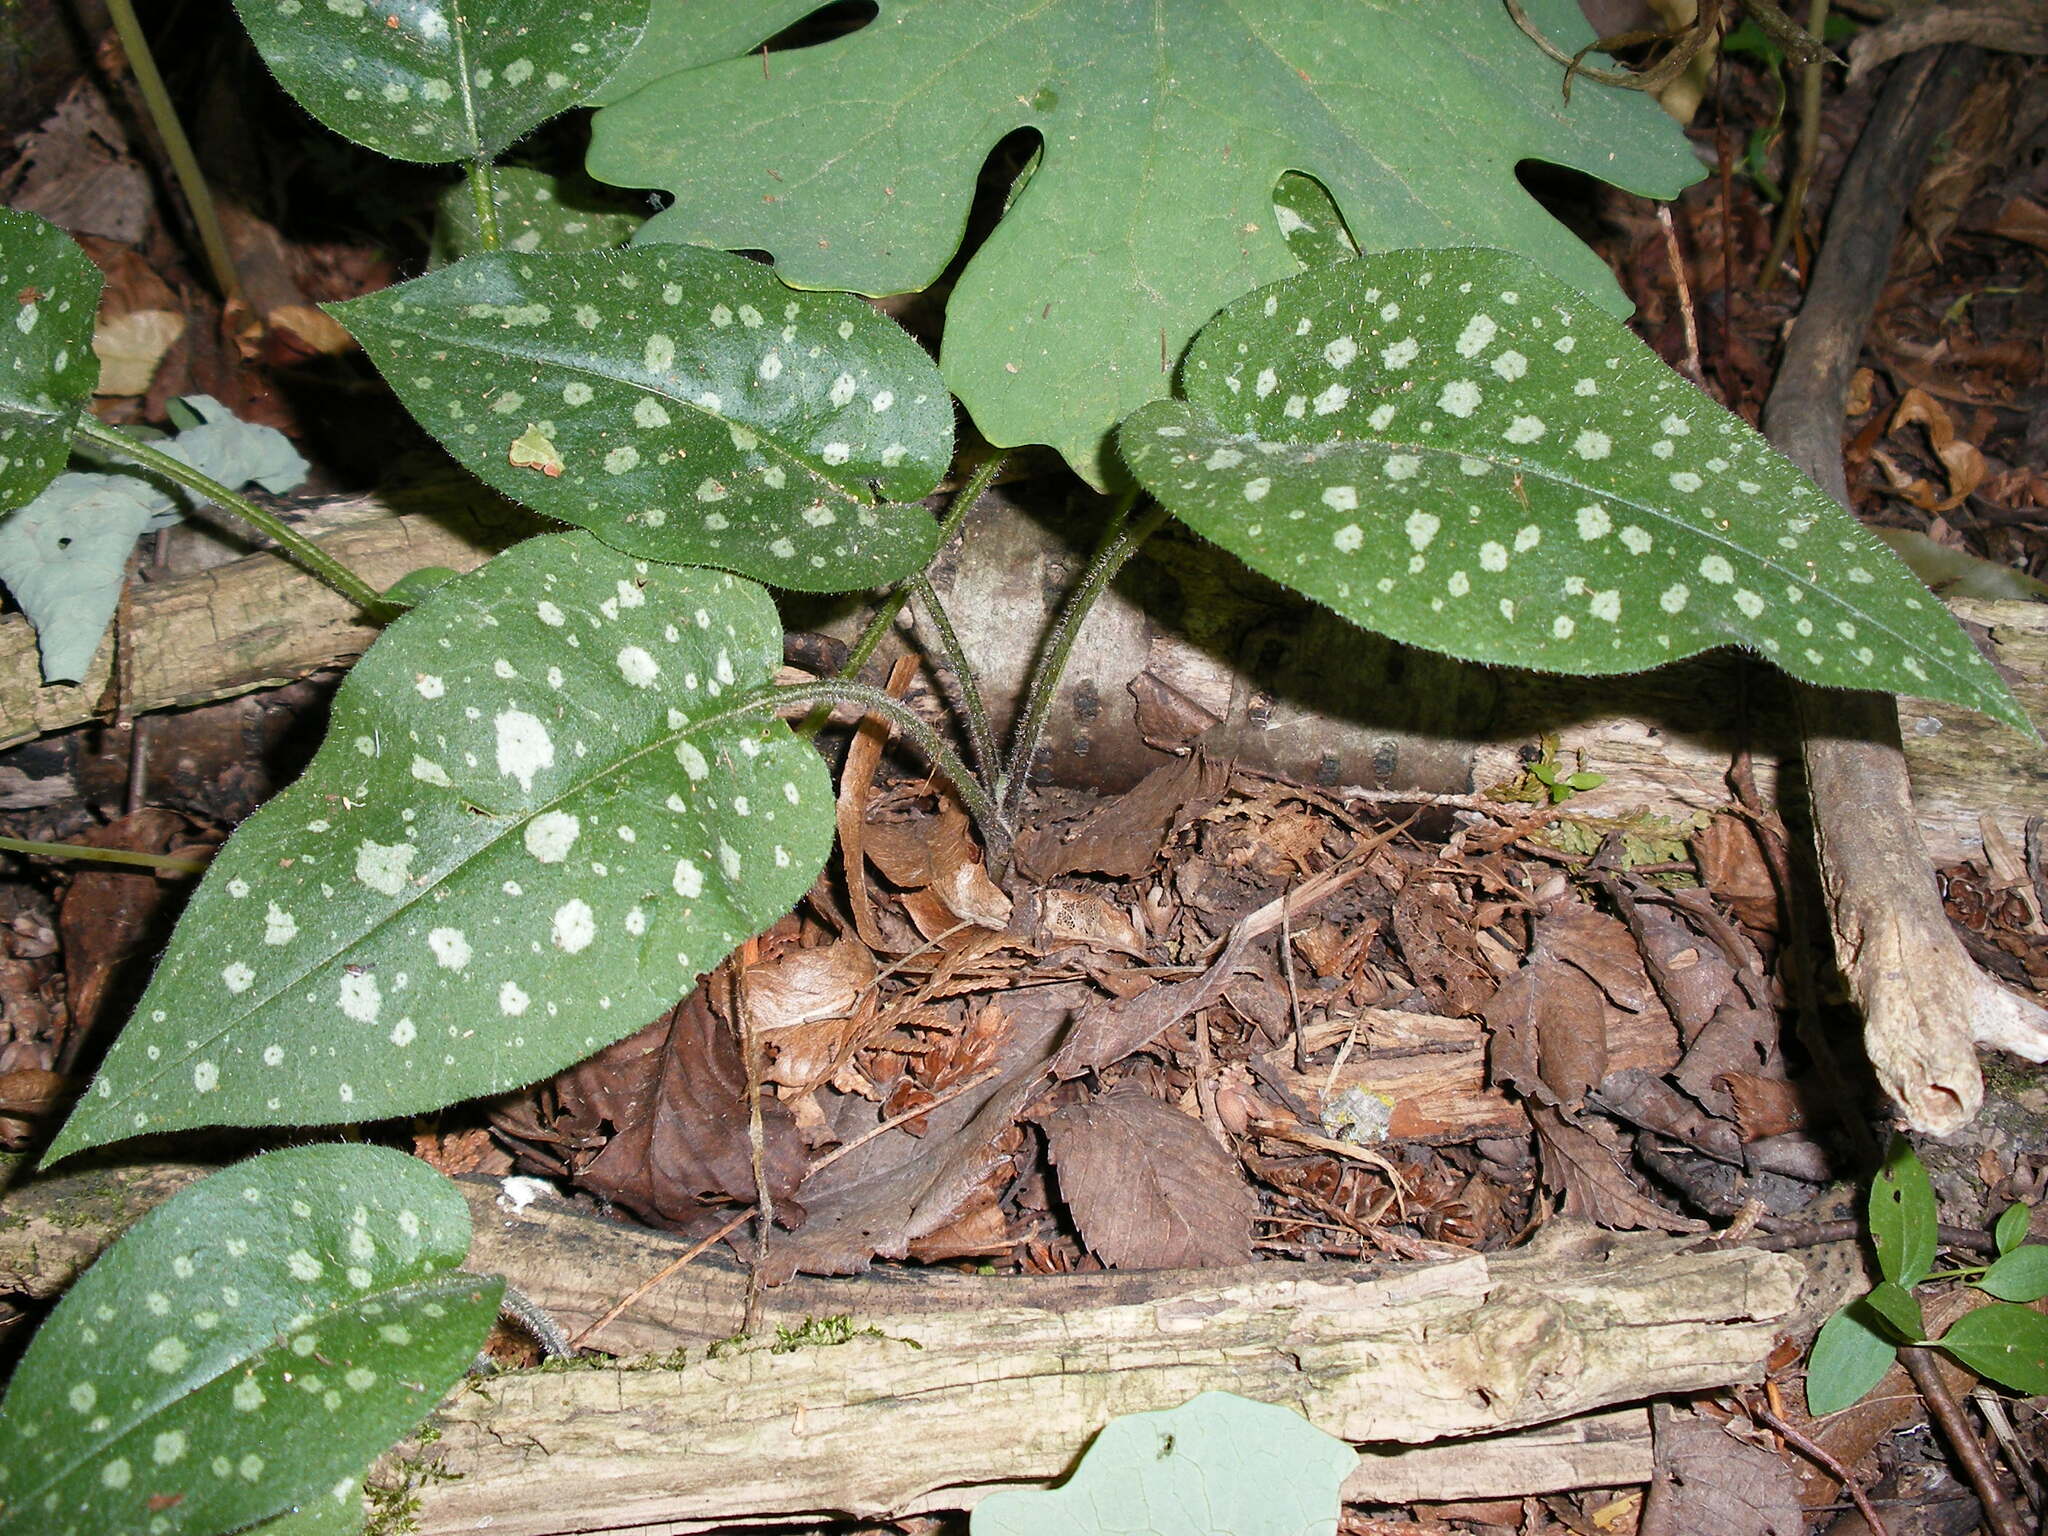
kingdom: Plantae
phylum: Tracheophyta
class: Magnoliopsida
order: Boraginales
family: Boraginaceae
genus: Pulmonaria
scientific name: Pulmonaria officinalis
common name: Lungwort
